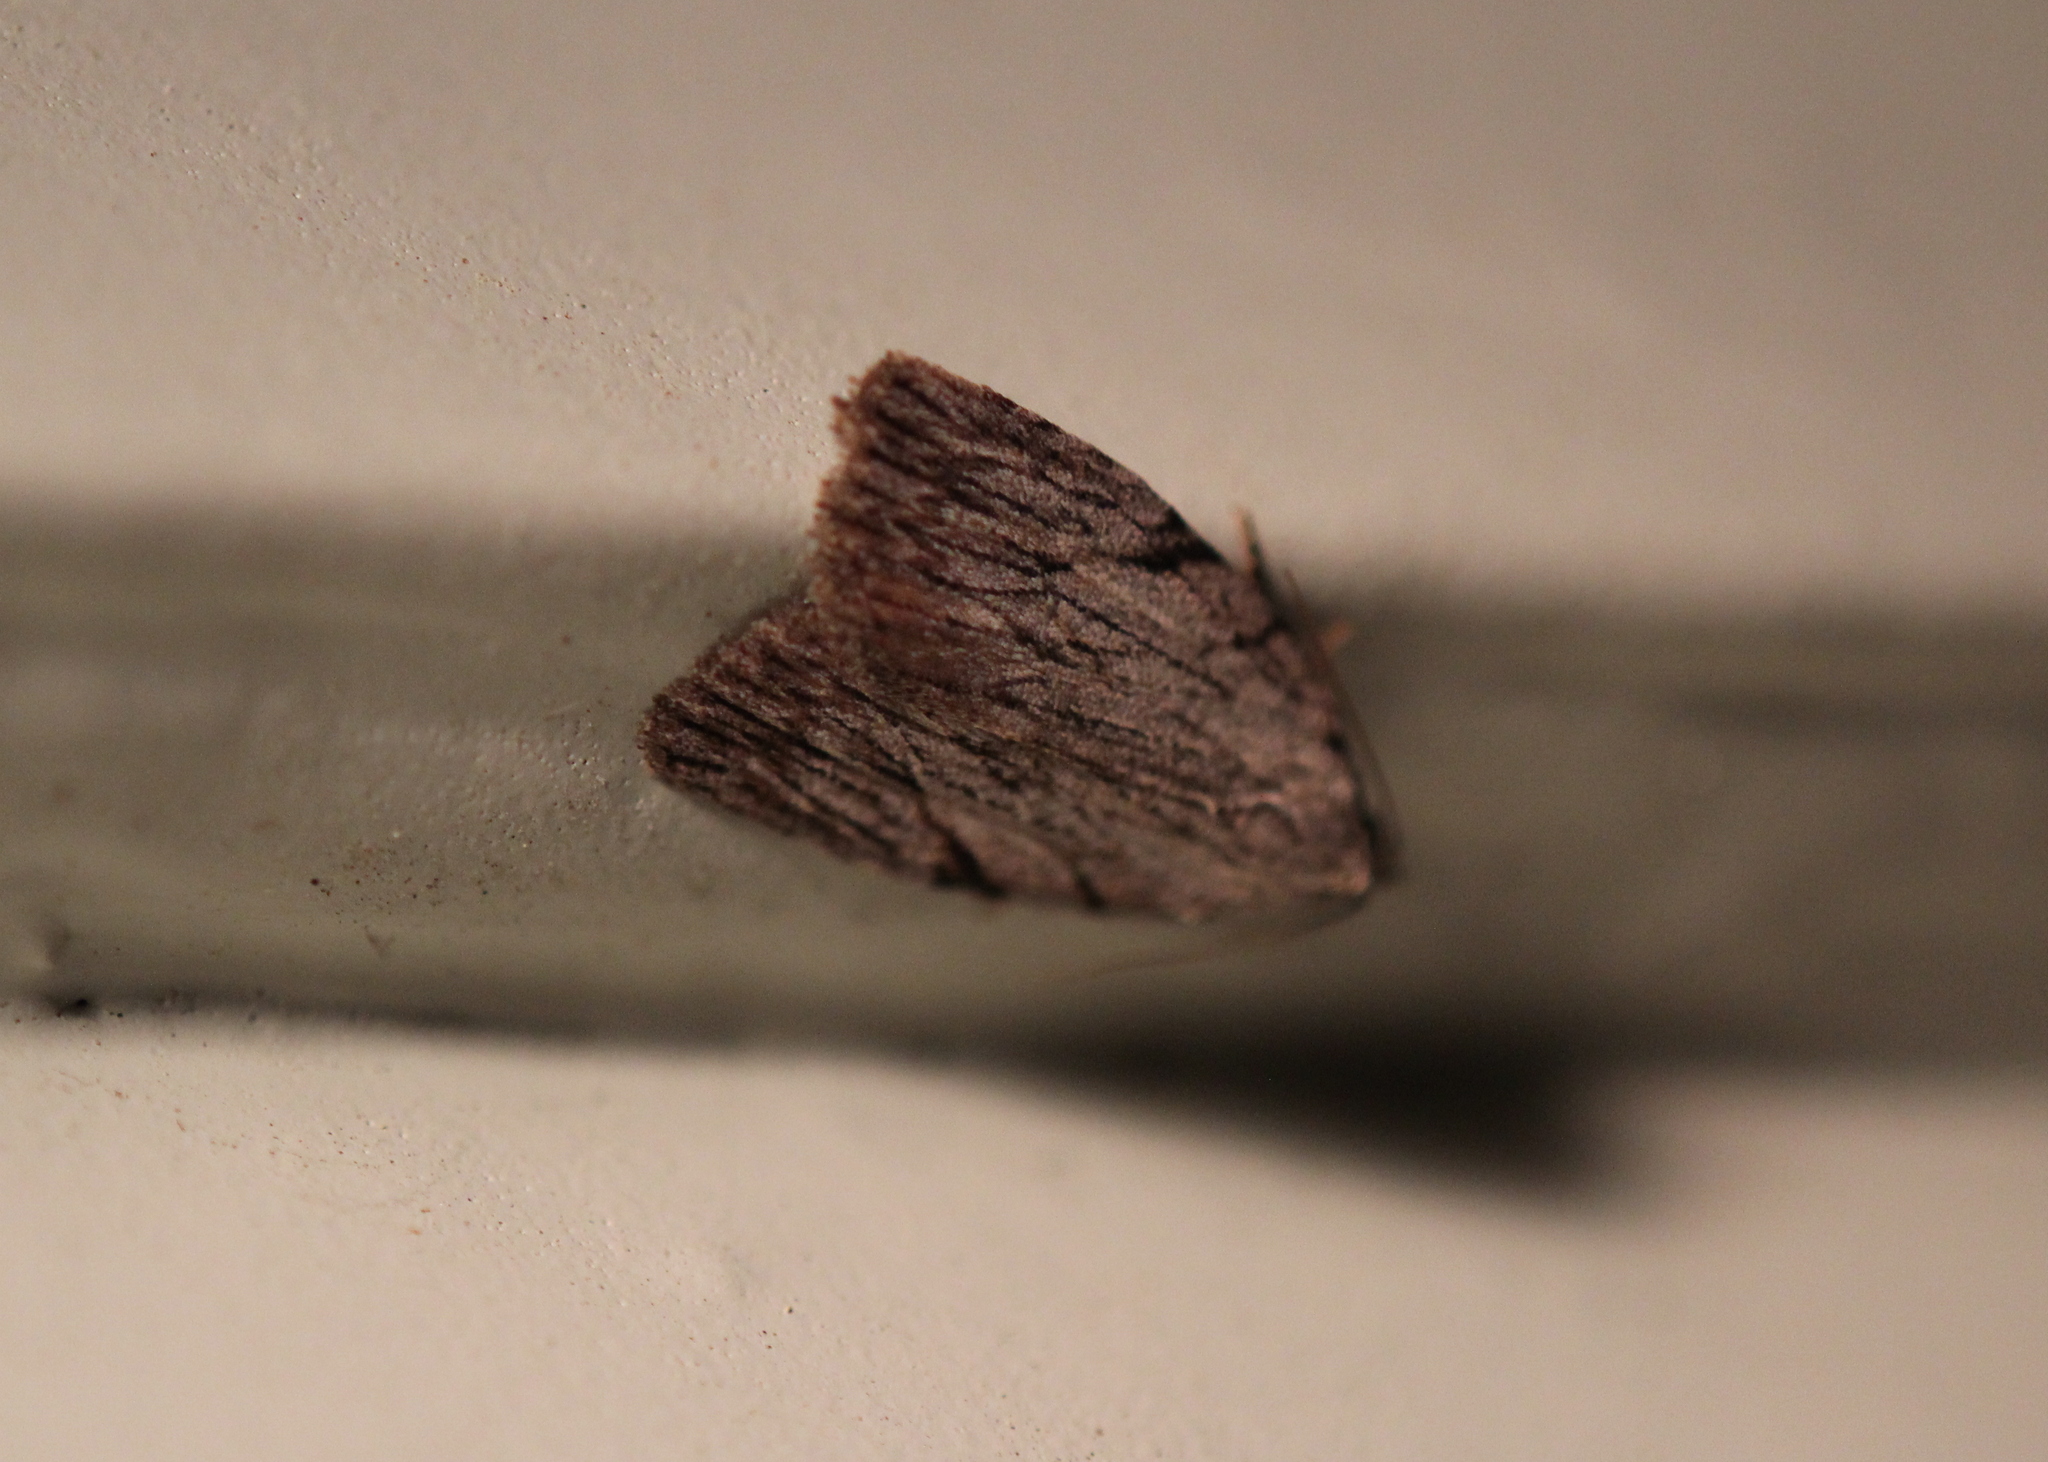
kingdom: Animalia
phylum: Arthropoda
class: Insecta
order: Lepidoptera
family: Noctuidae
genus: Balsa
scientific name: Balsa tristrigella
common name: Three-lined balsa moth
